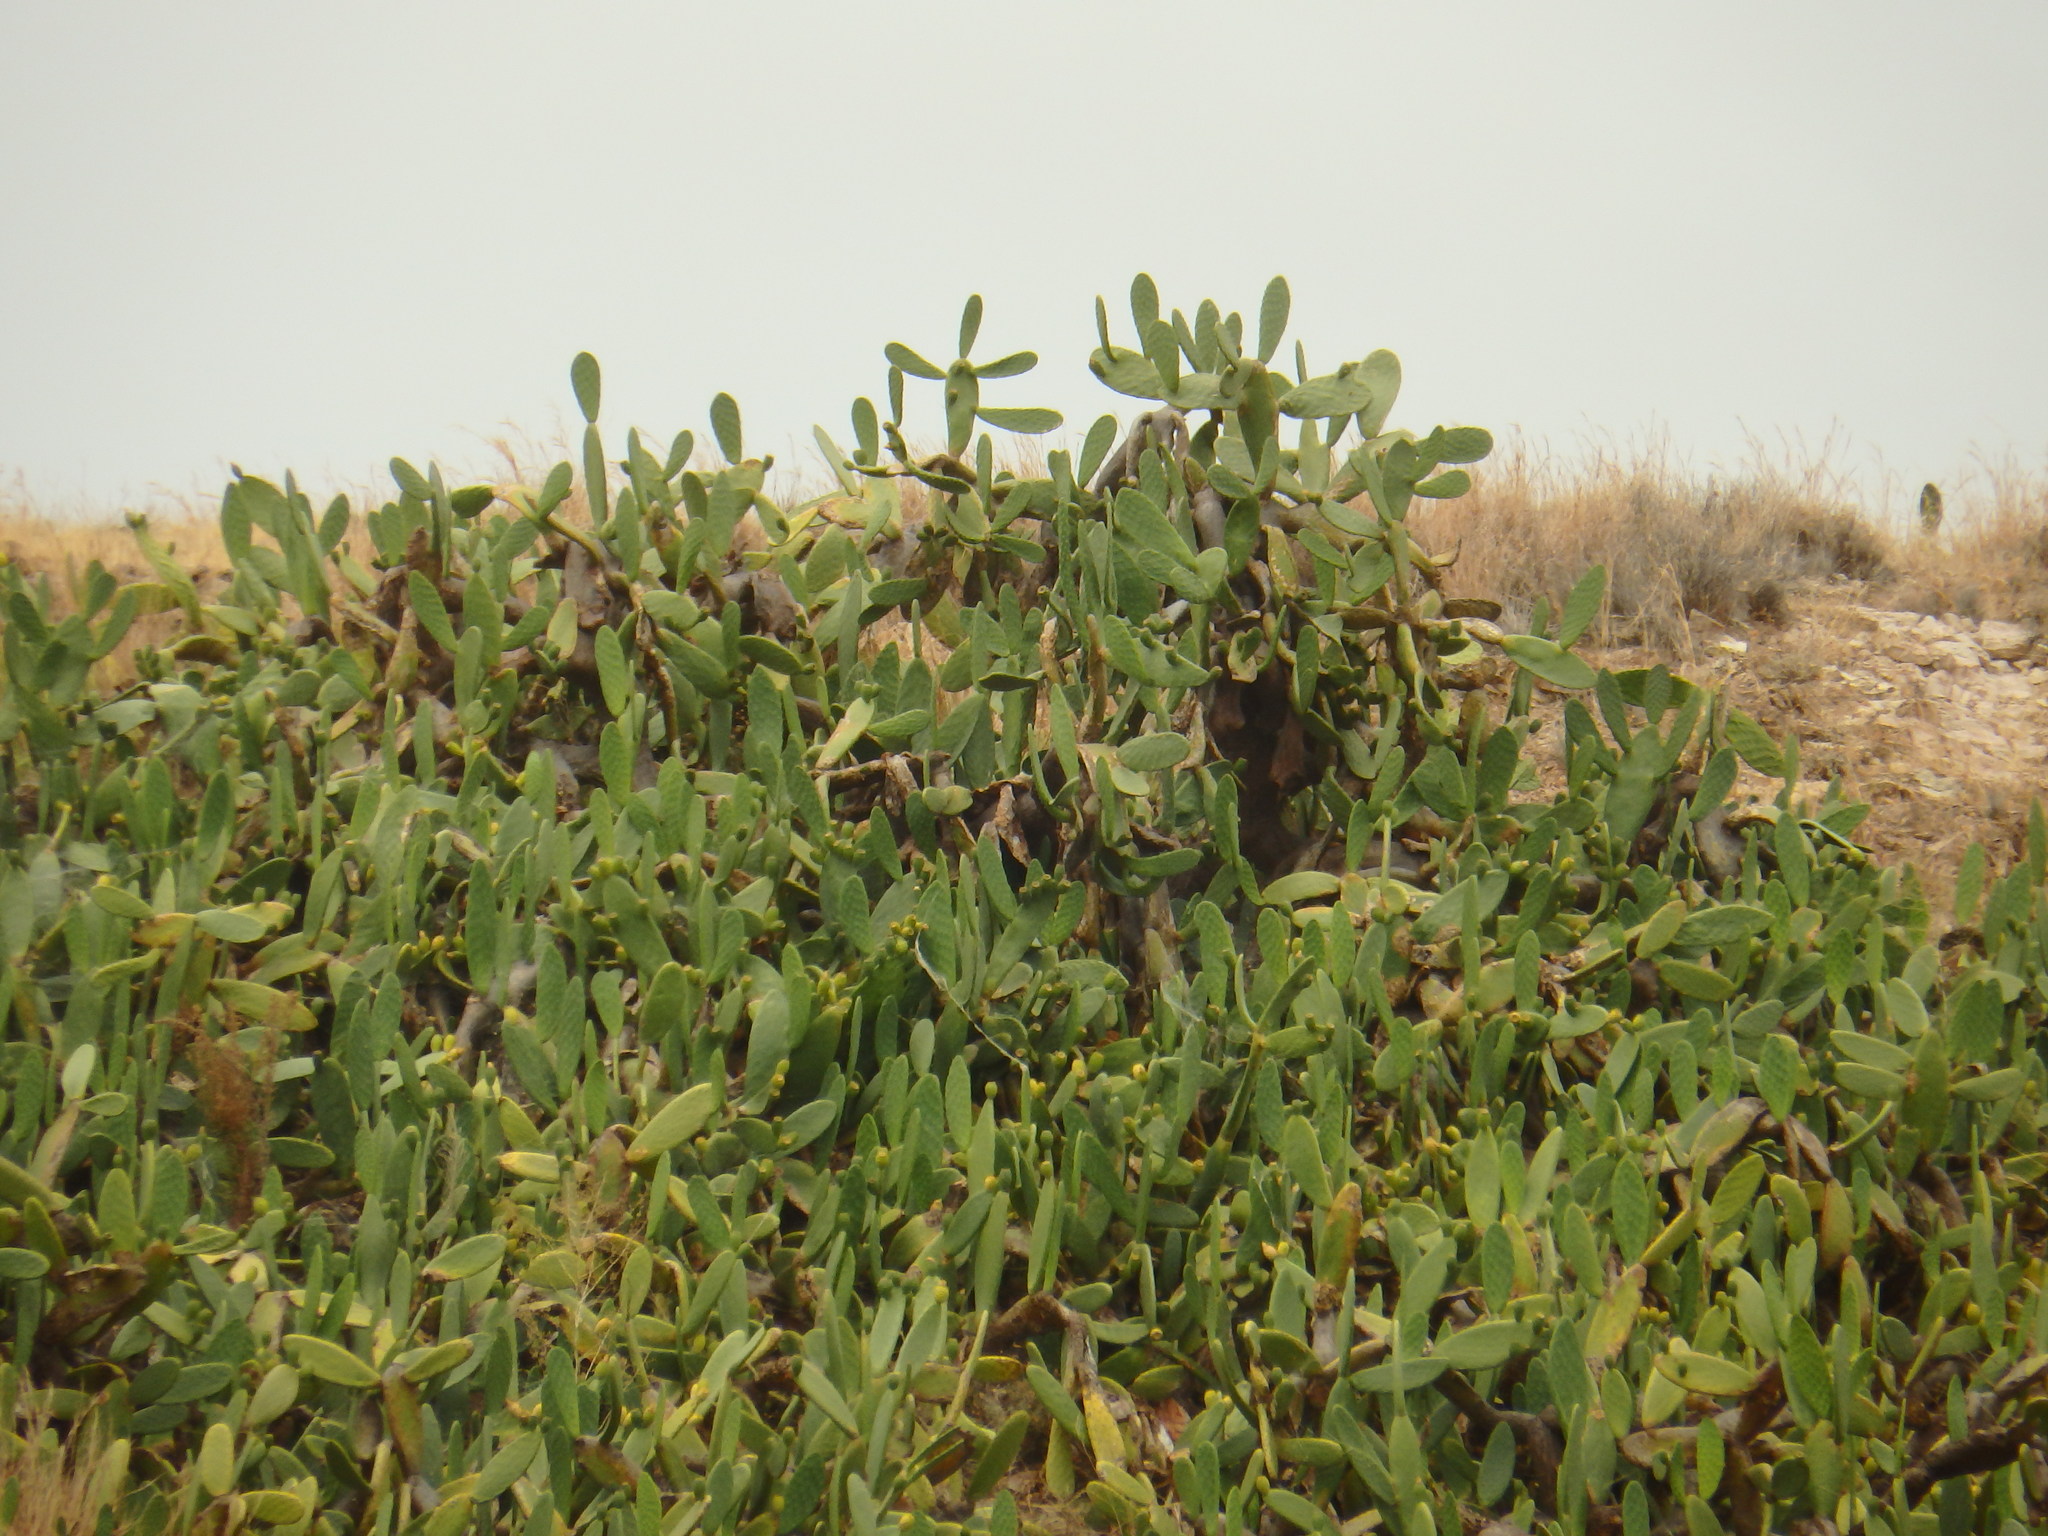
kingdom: Plantae
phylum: Tracheophyta
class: Magnoliopsida
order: Caryophyllales
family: Cactaceae
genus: Opuntia
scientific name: Opuntia ficus-indica
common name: Barbary fig
